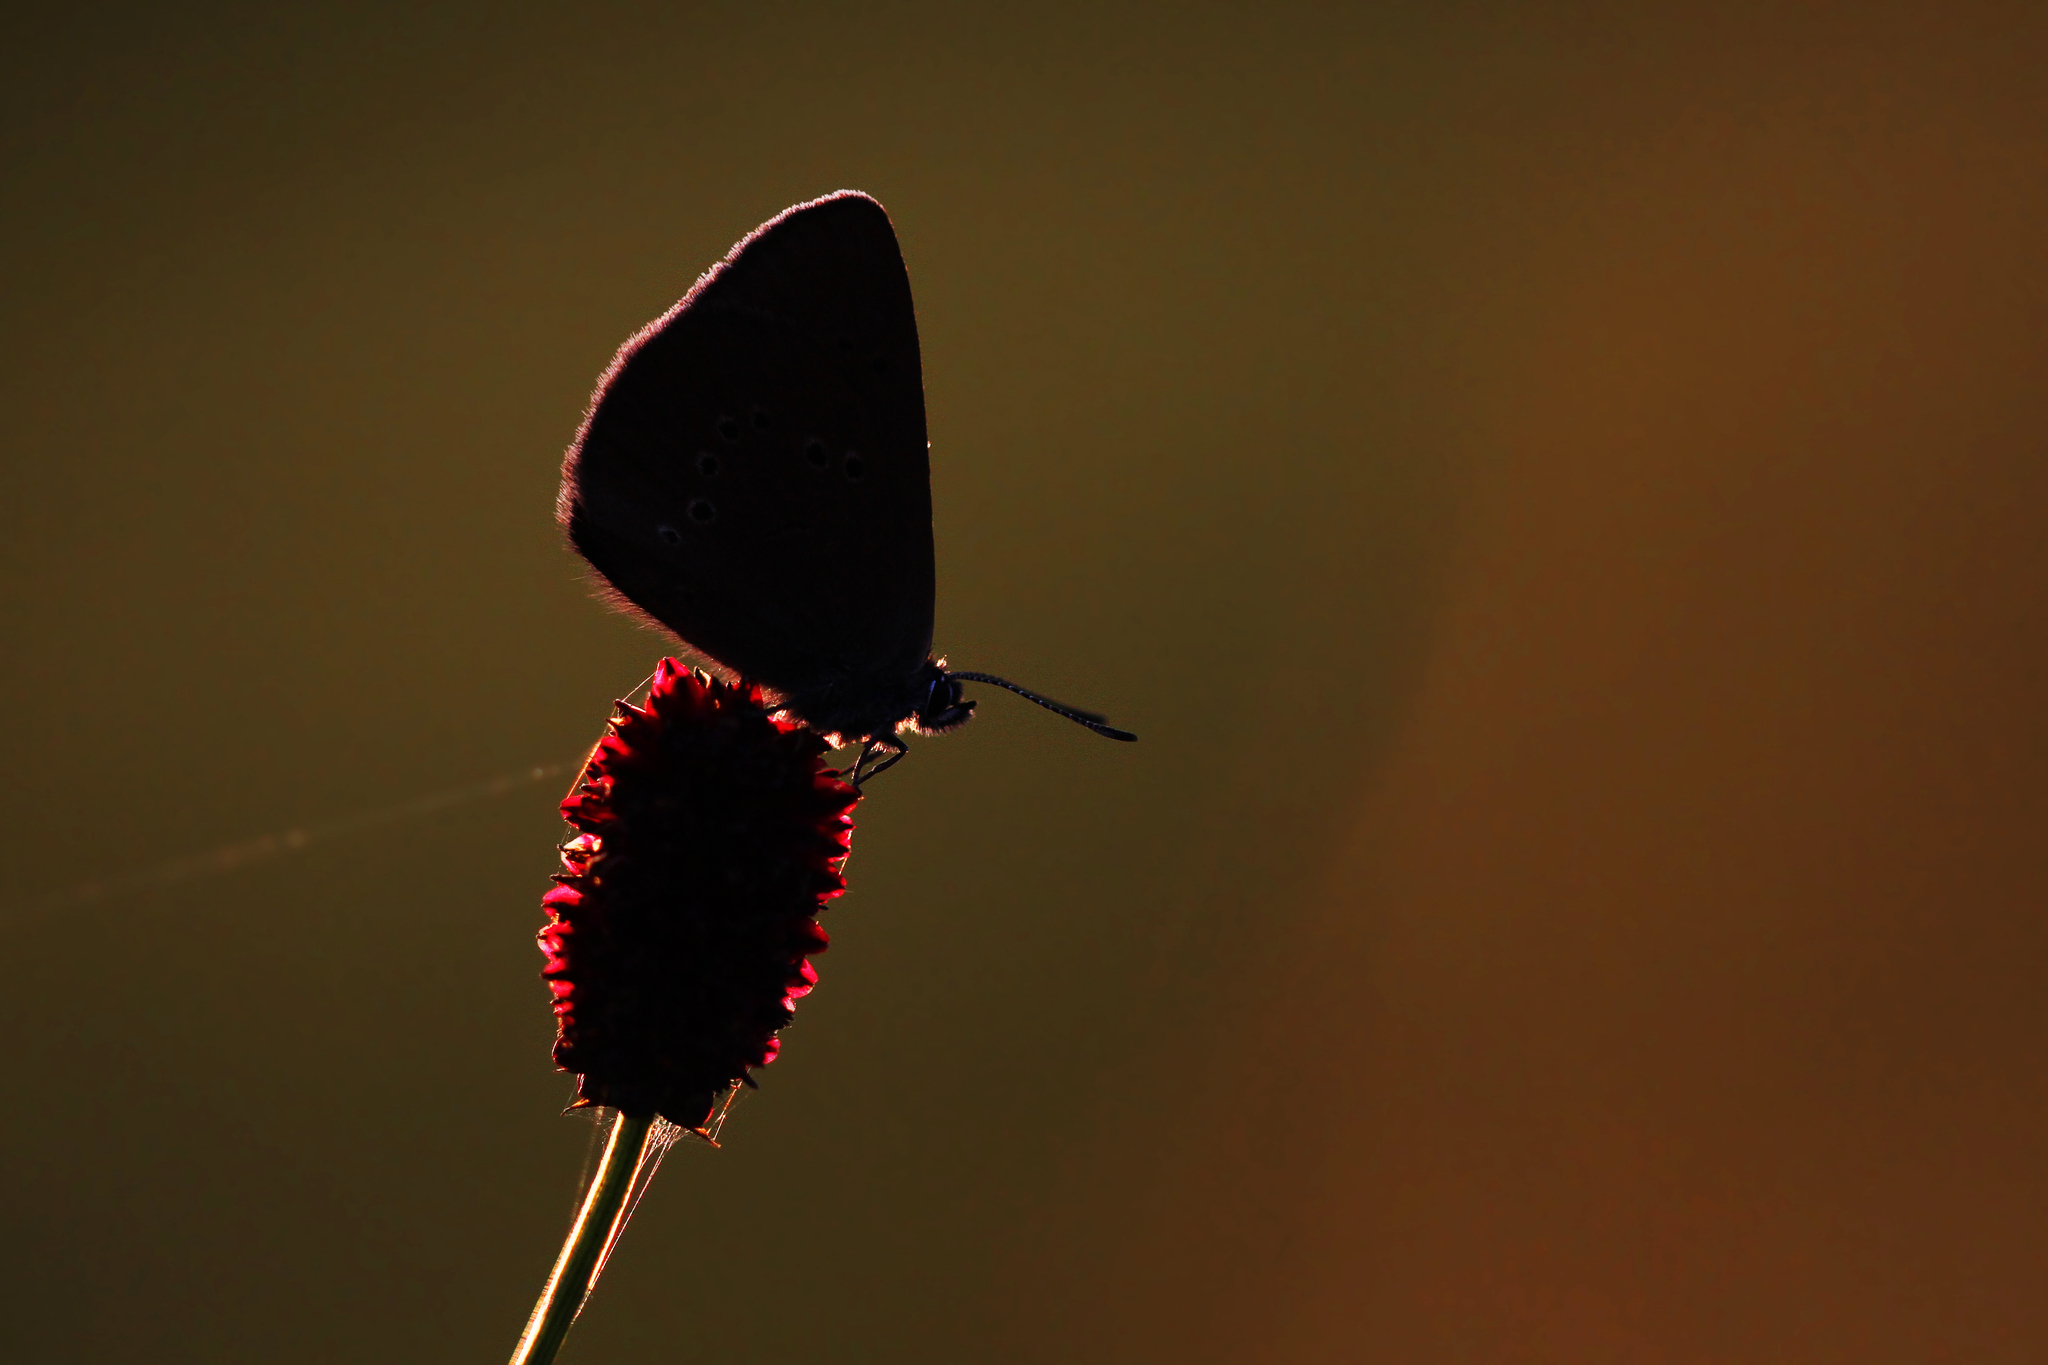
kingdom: Animalia
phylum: Arthropoda
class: Insecta
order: Lepidoptera
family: Lycaenidae
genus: Maculinea
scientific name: Maculinea nausithous
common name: Dusky large blue
